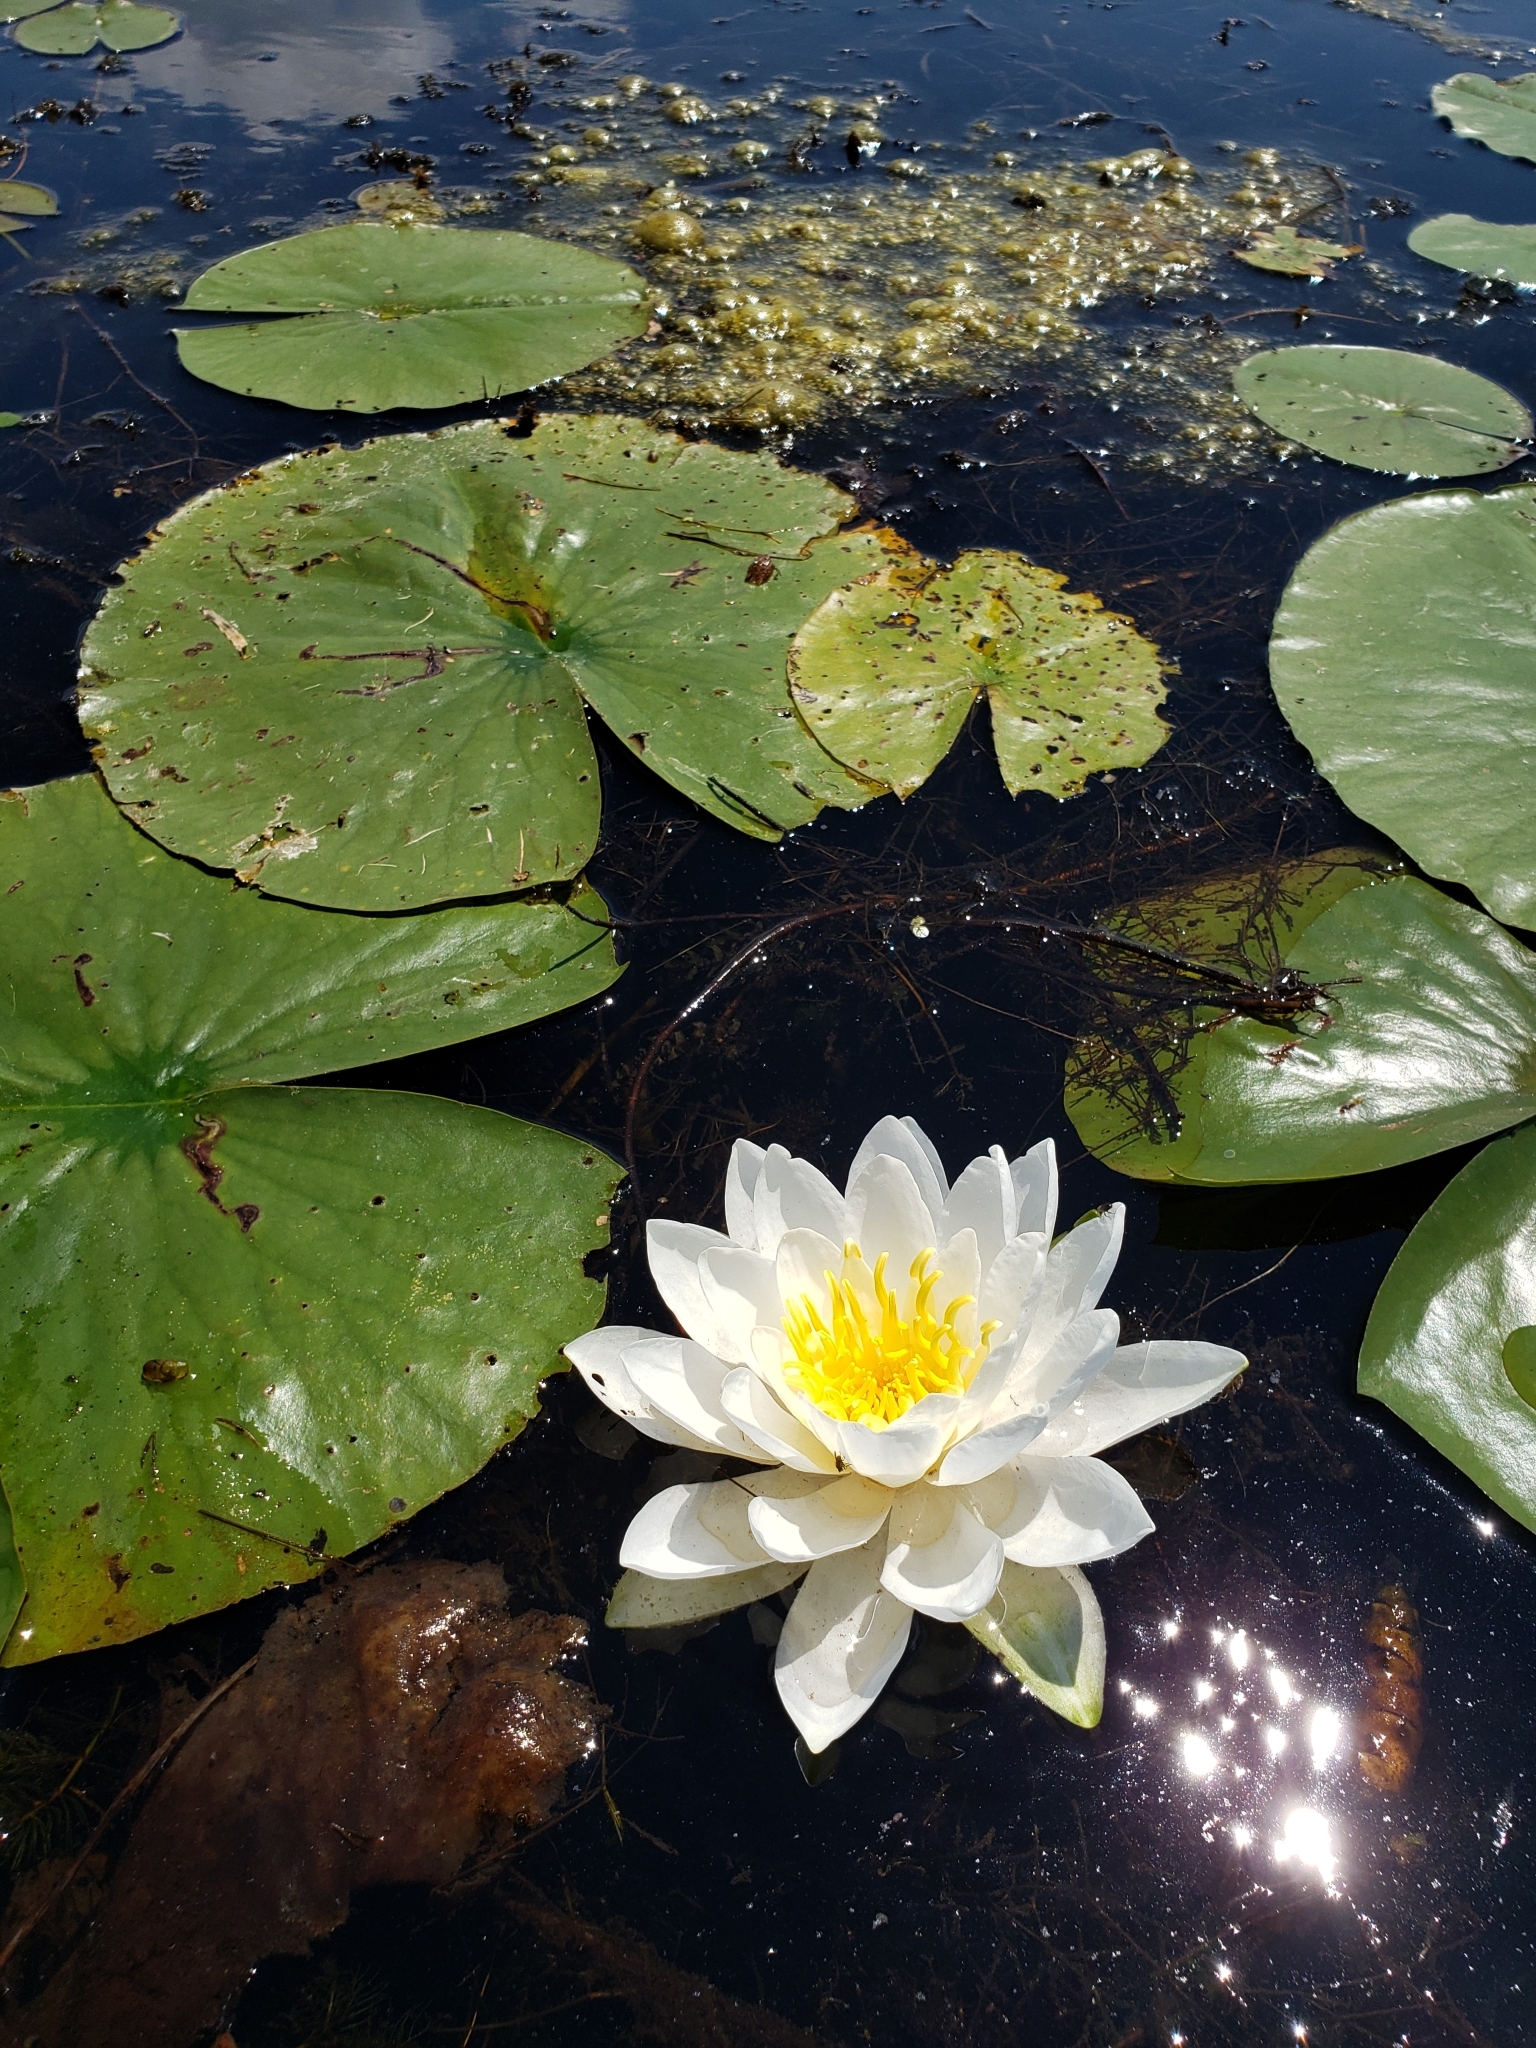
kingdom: Plantae
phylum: Tracheophyta
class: Magnoliopsida
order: Nymphaeales
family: Nymphaeaceae
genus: Nymphaea
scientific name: Nymphaea odorata
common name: Fragrant water-lily
